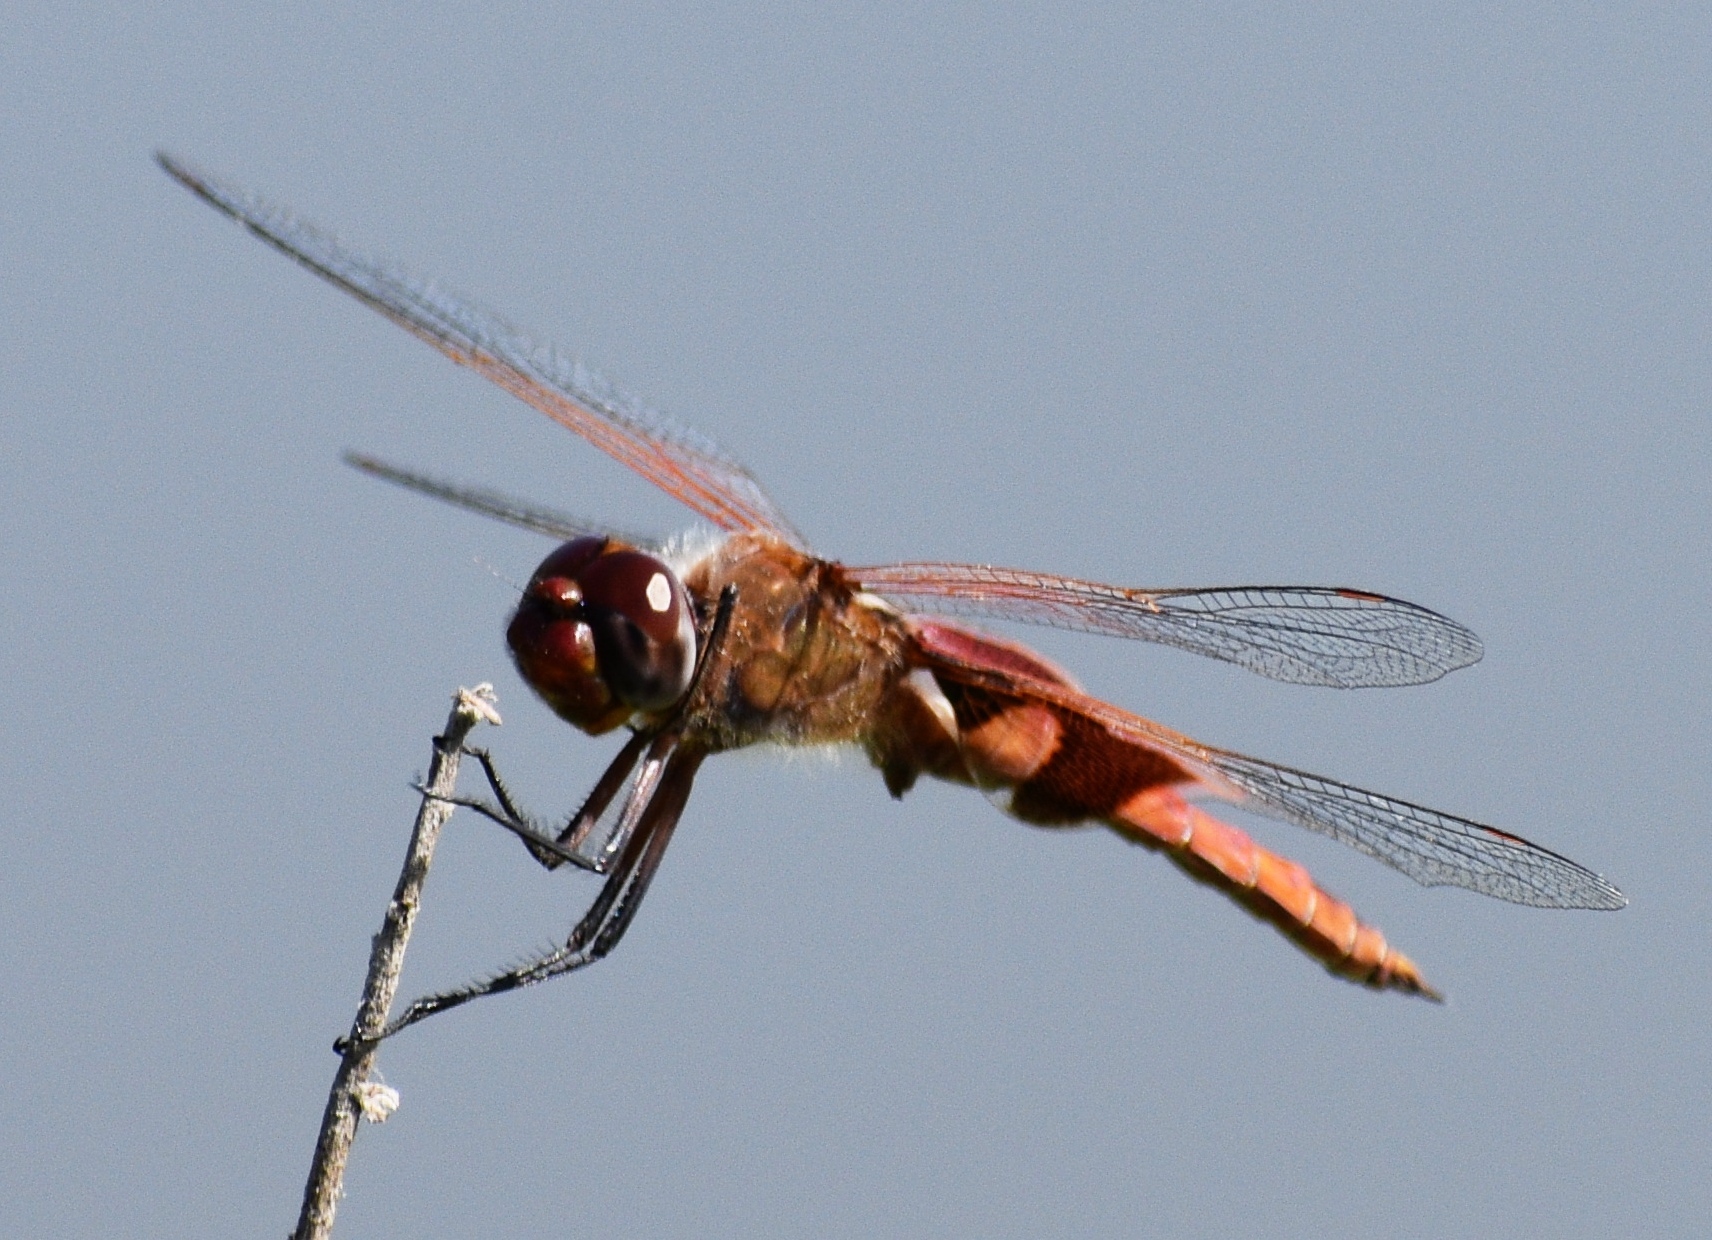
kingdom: Animalia
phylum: Arthropoda
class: Insecta
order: Odonata
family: Libellulidae
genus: Tramea
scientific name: Tramea onusta
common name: Red saddlebags
